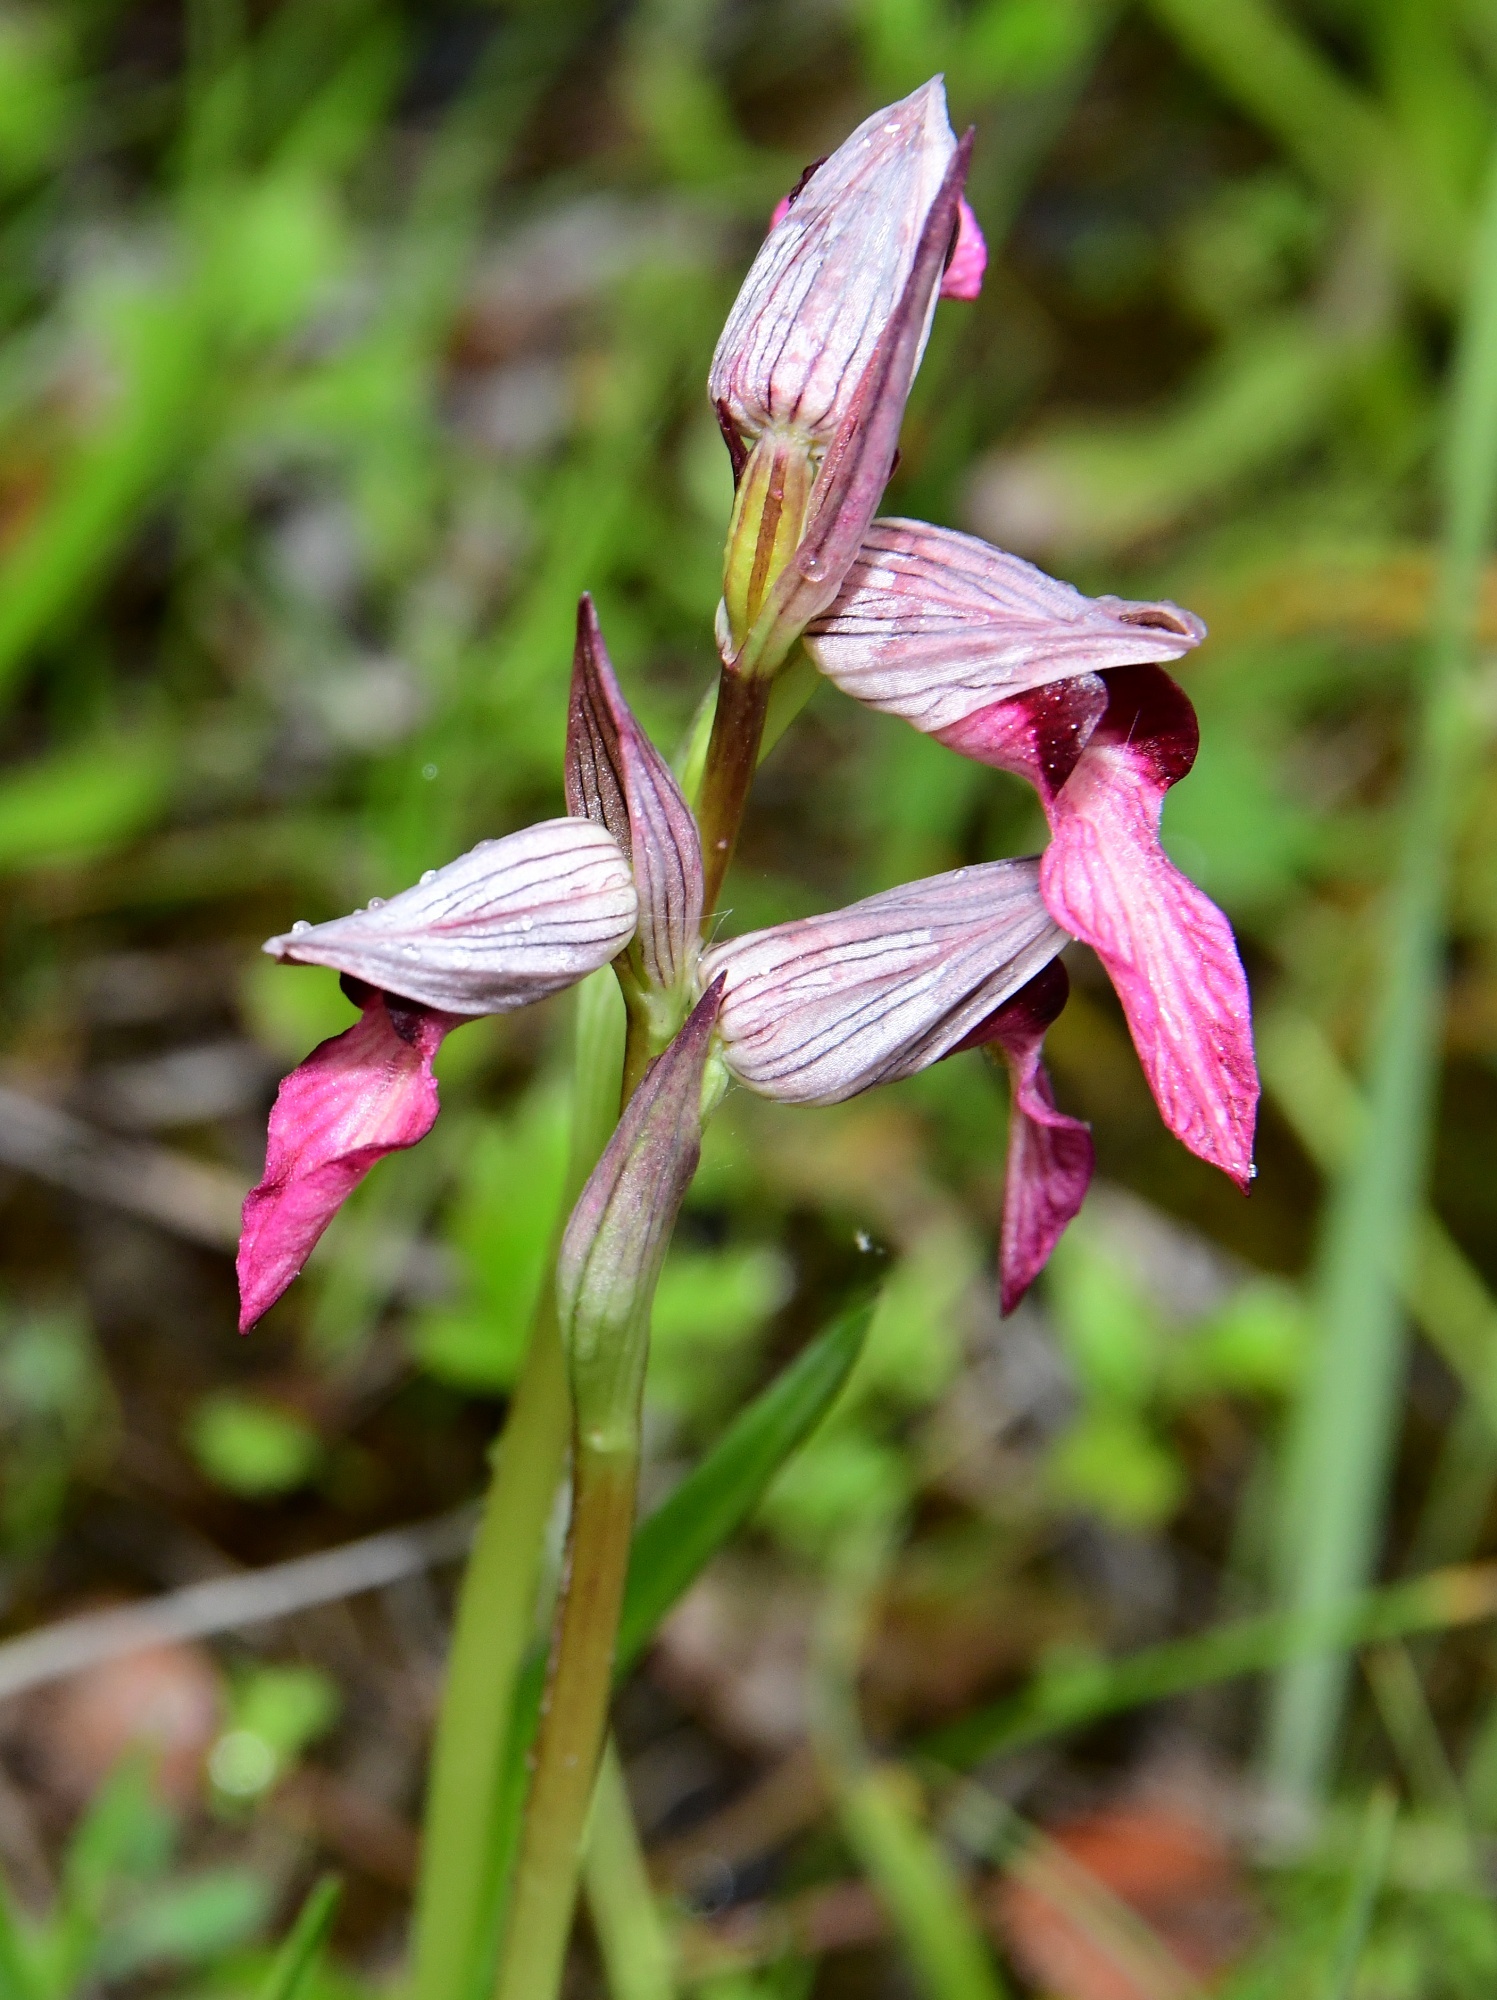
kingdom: Plantae
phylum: Tracheophyta
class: Liliopsida
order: Asparagales
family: Orchidaceae
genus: Serapias
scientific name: Serapias lingua
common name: Tongue-orchid
